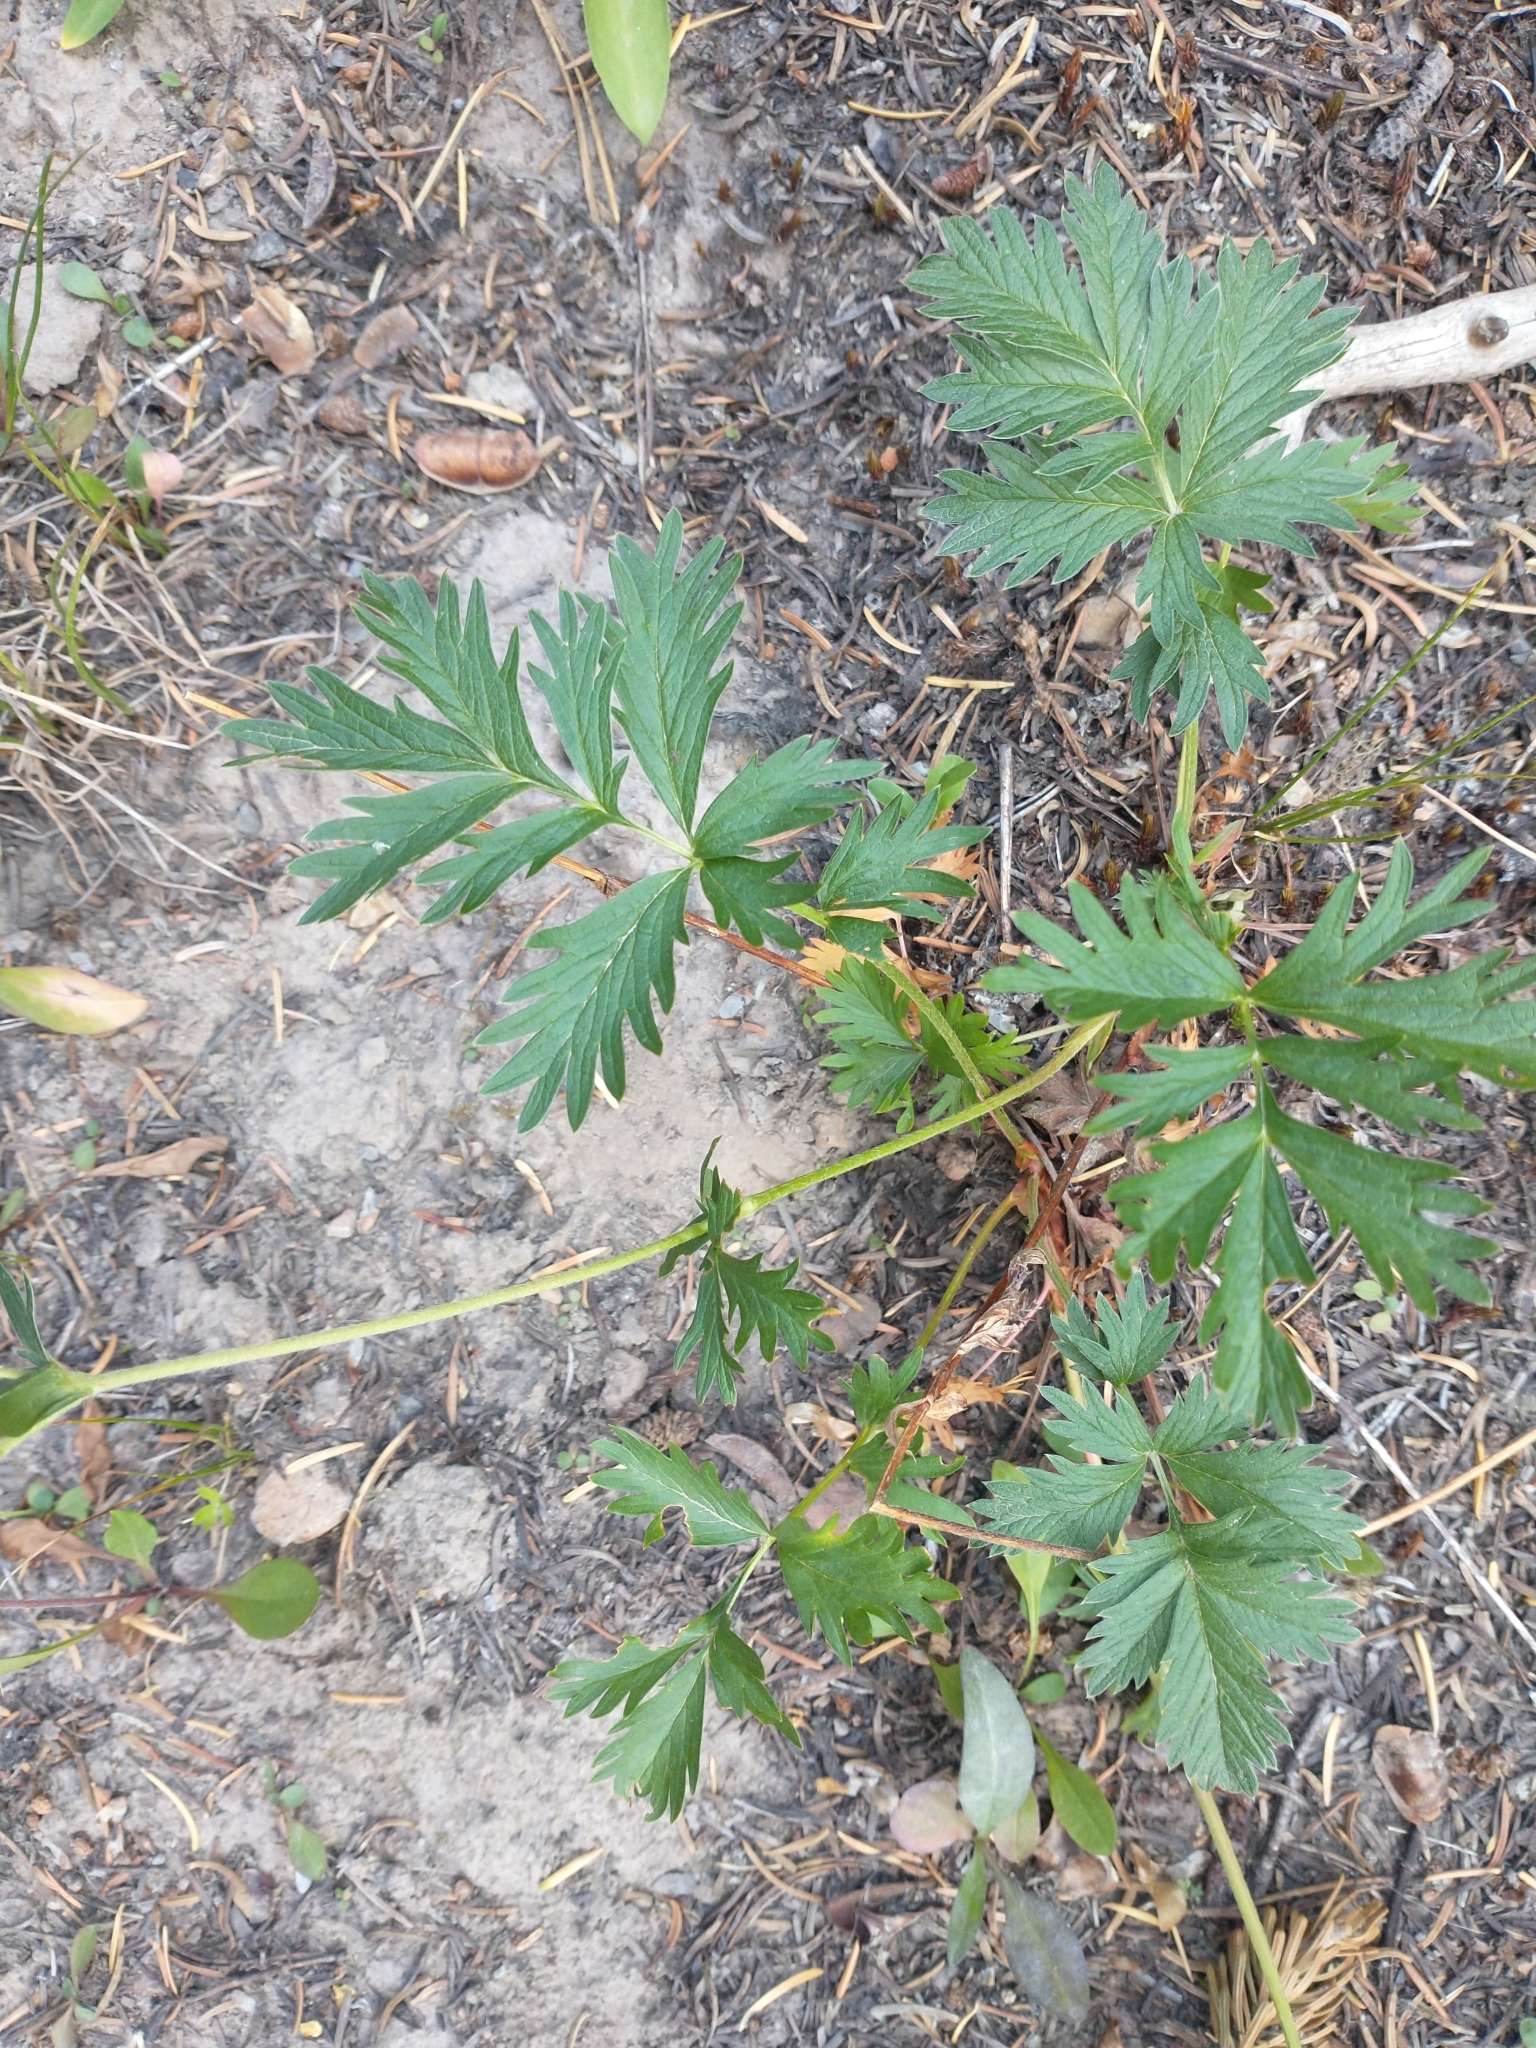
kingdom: Plantae
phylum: Tracheophyta
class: Magnoliopsida
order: Rosales
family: Rosaceae
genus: Potentilla
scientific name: Potentilla drummondii
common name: Drummond's cinquefoil
